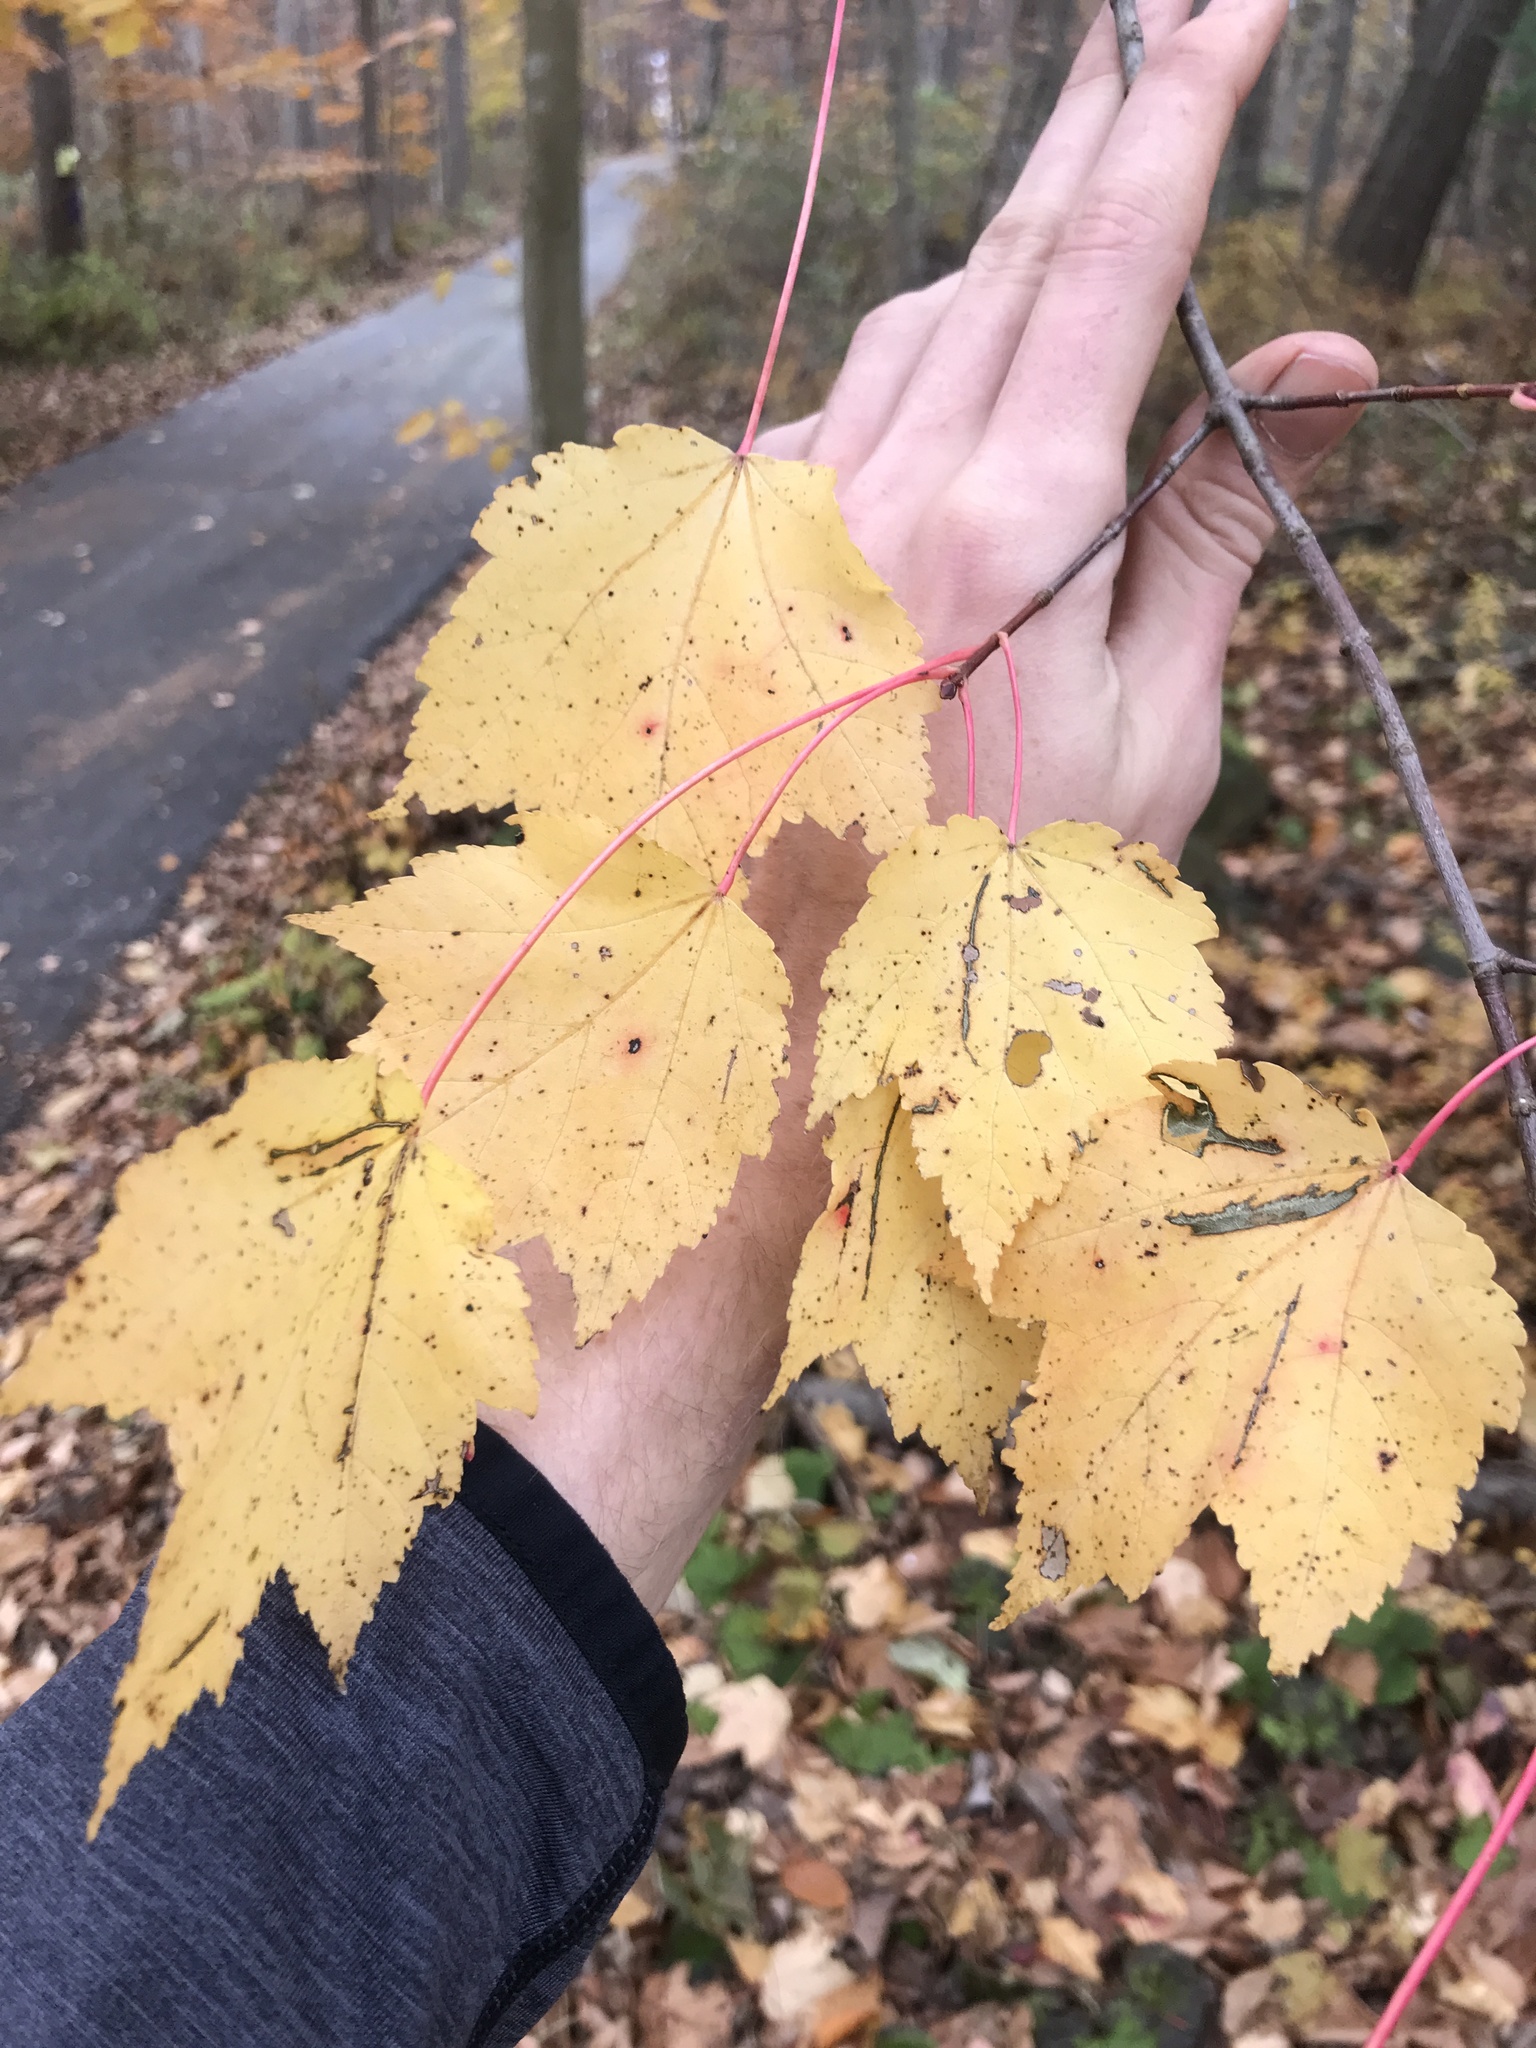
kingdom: Plantae
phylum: Tracheophyta
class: Magnoliopsida
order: Sapindales
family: Sapindaceae
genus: Acer
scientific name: Acer rubrum
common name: Red maple
